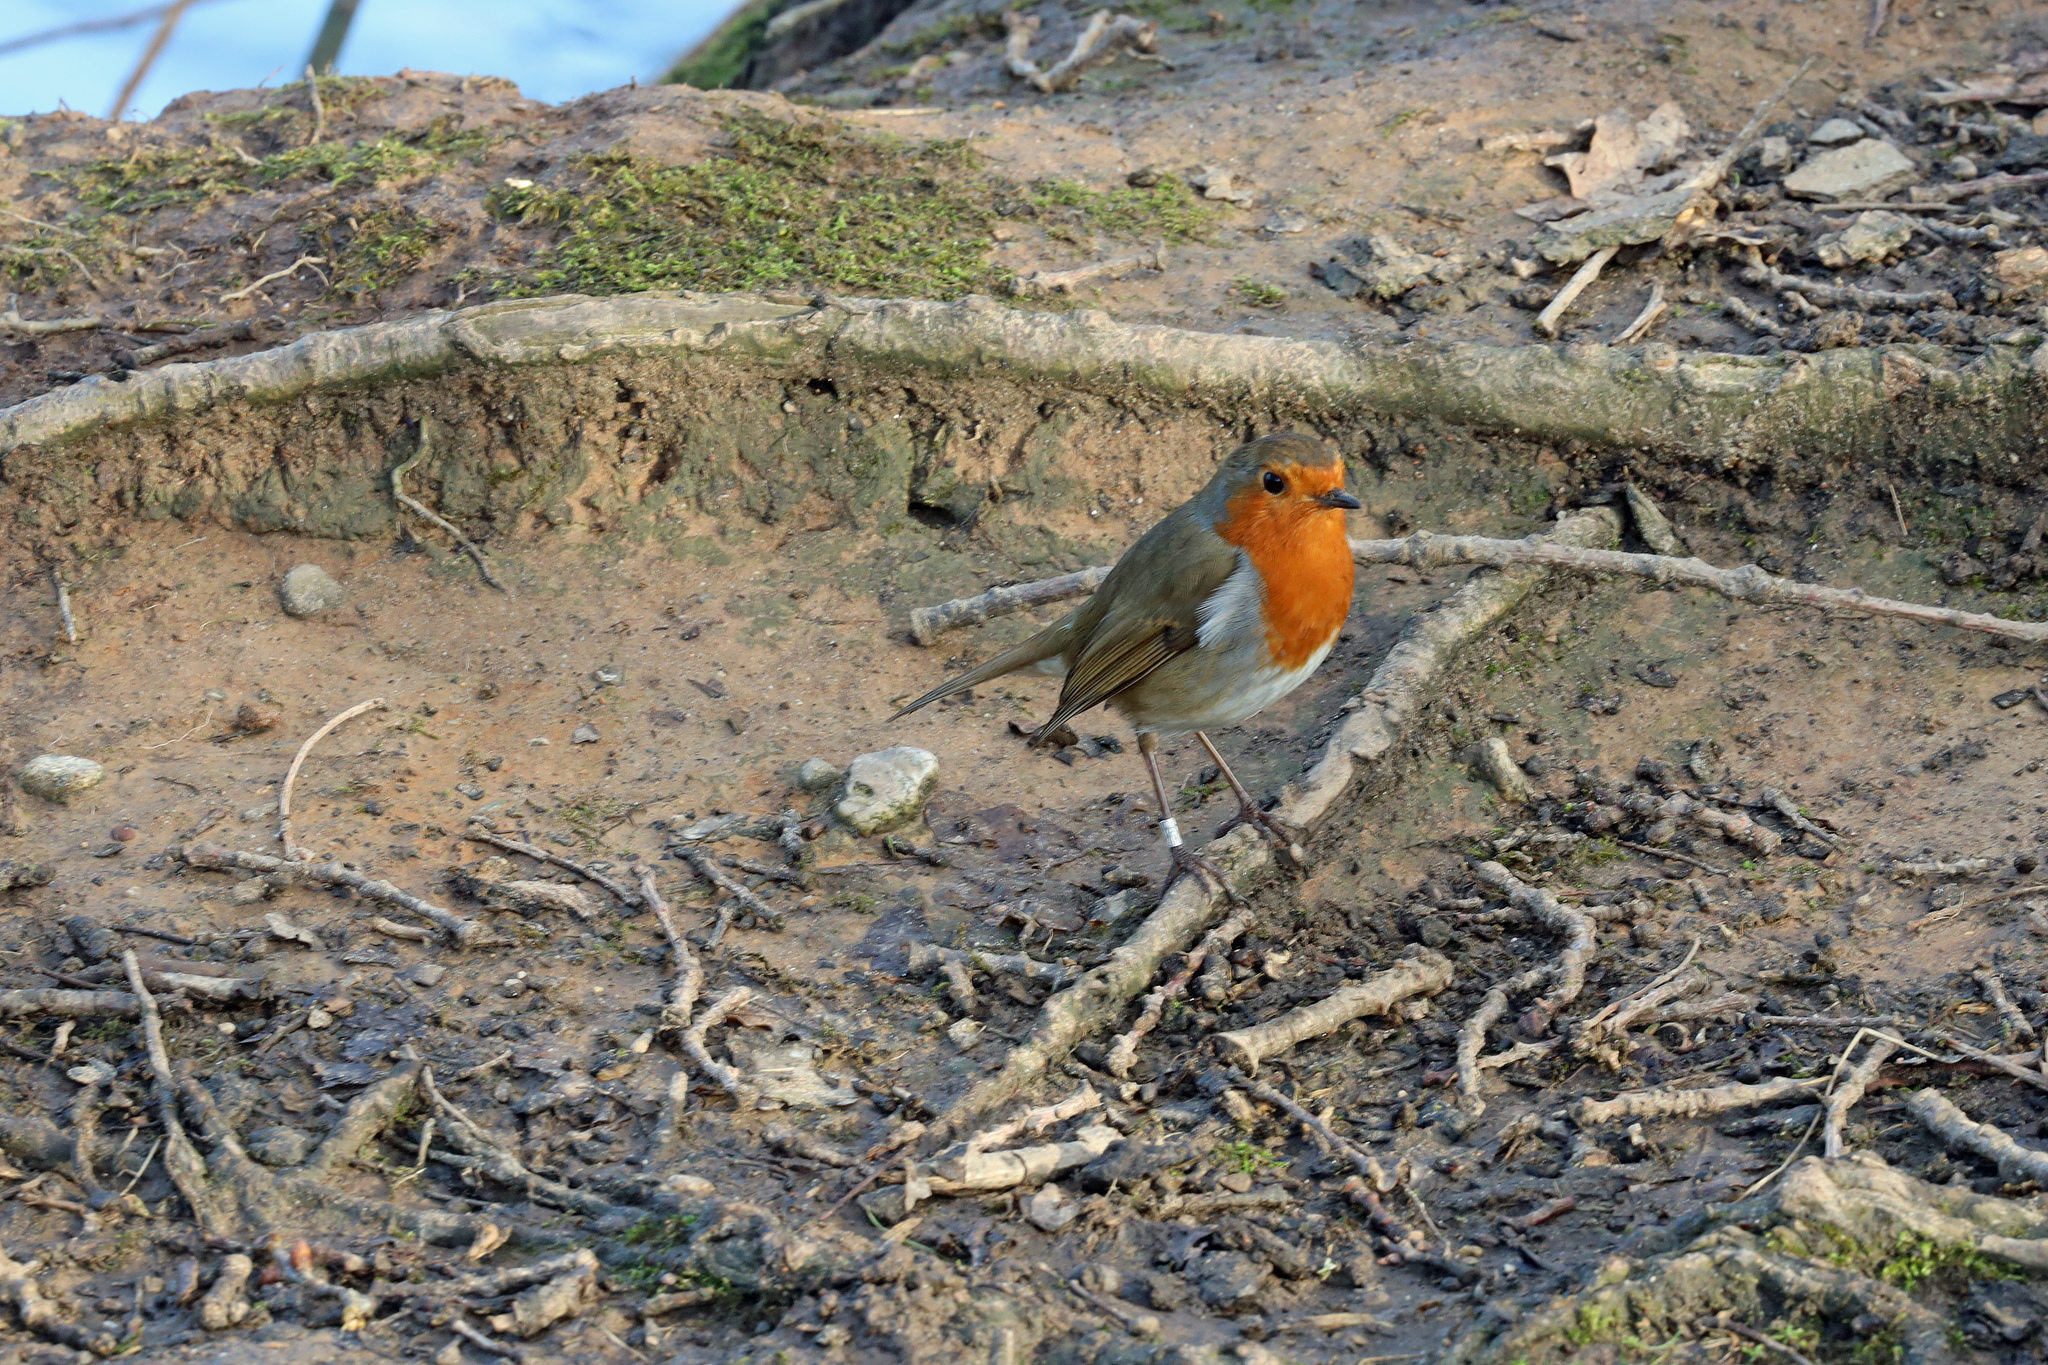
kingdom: Animalia
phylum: Chordata
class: Aves
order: Passeriformes
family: Muscicapidae
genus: Erithacus
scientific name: Erithacus rubecula
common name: European robin
